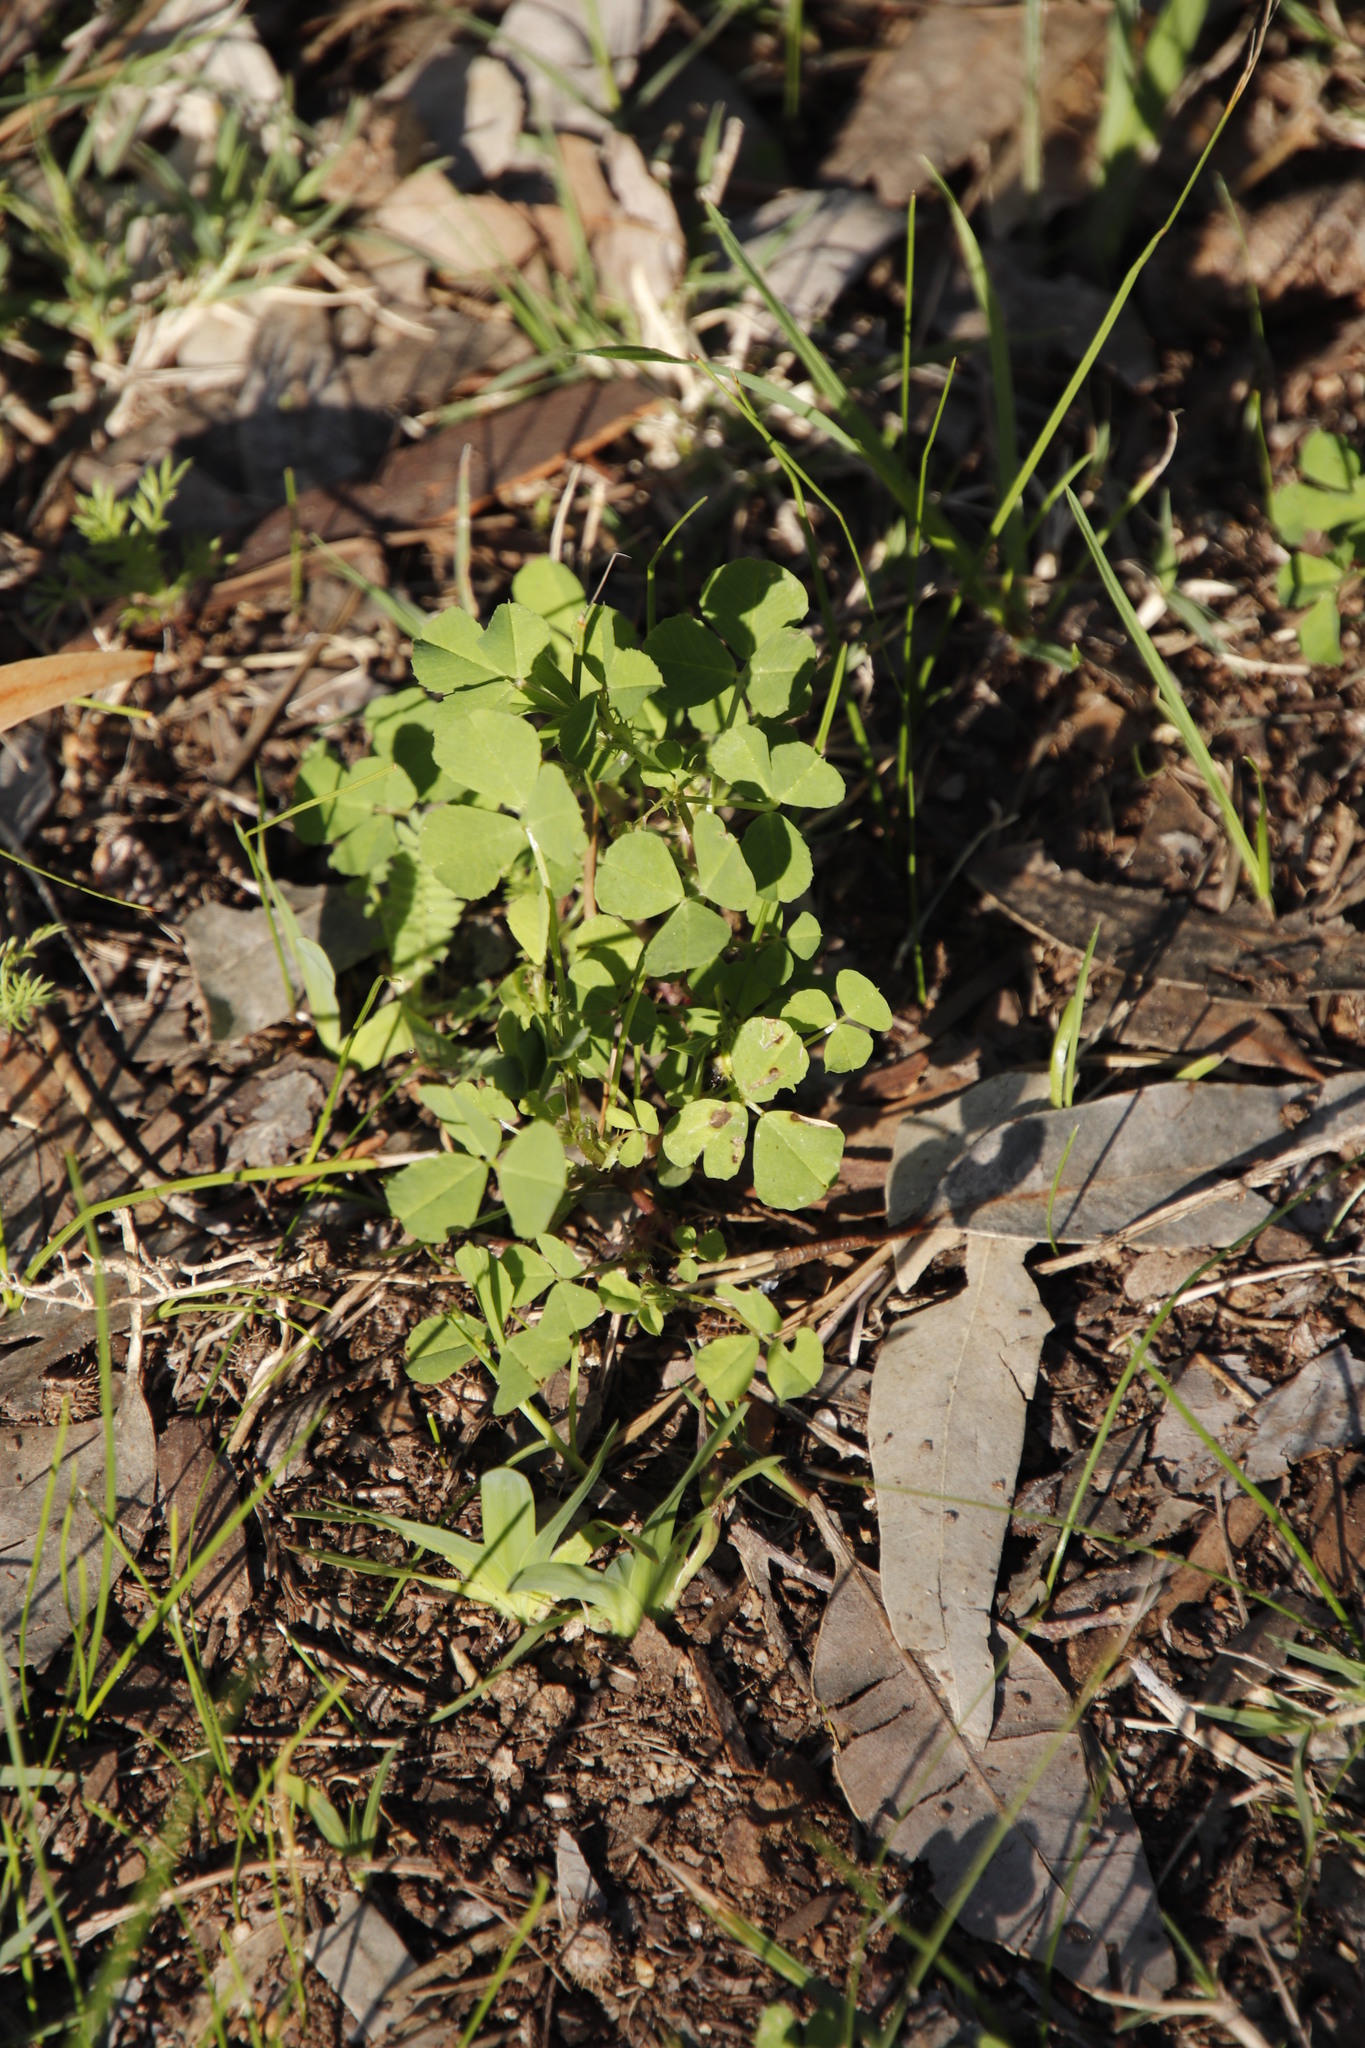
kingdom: Plantae
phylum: Tracheophyta
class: Magnoliopsida
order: Oxalidales
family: Oxalidaceae
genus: Oxalis
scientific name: Oxalis pes-caprae
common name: Bermuda-buttercup
